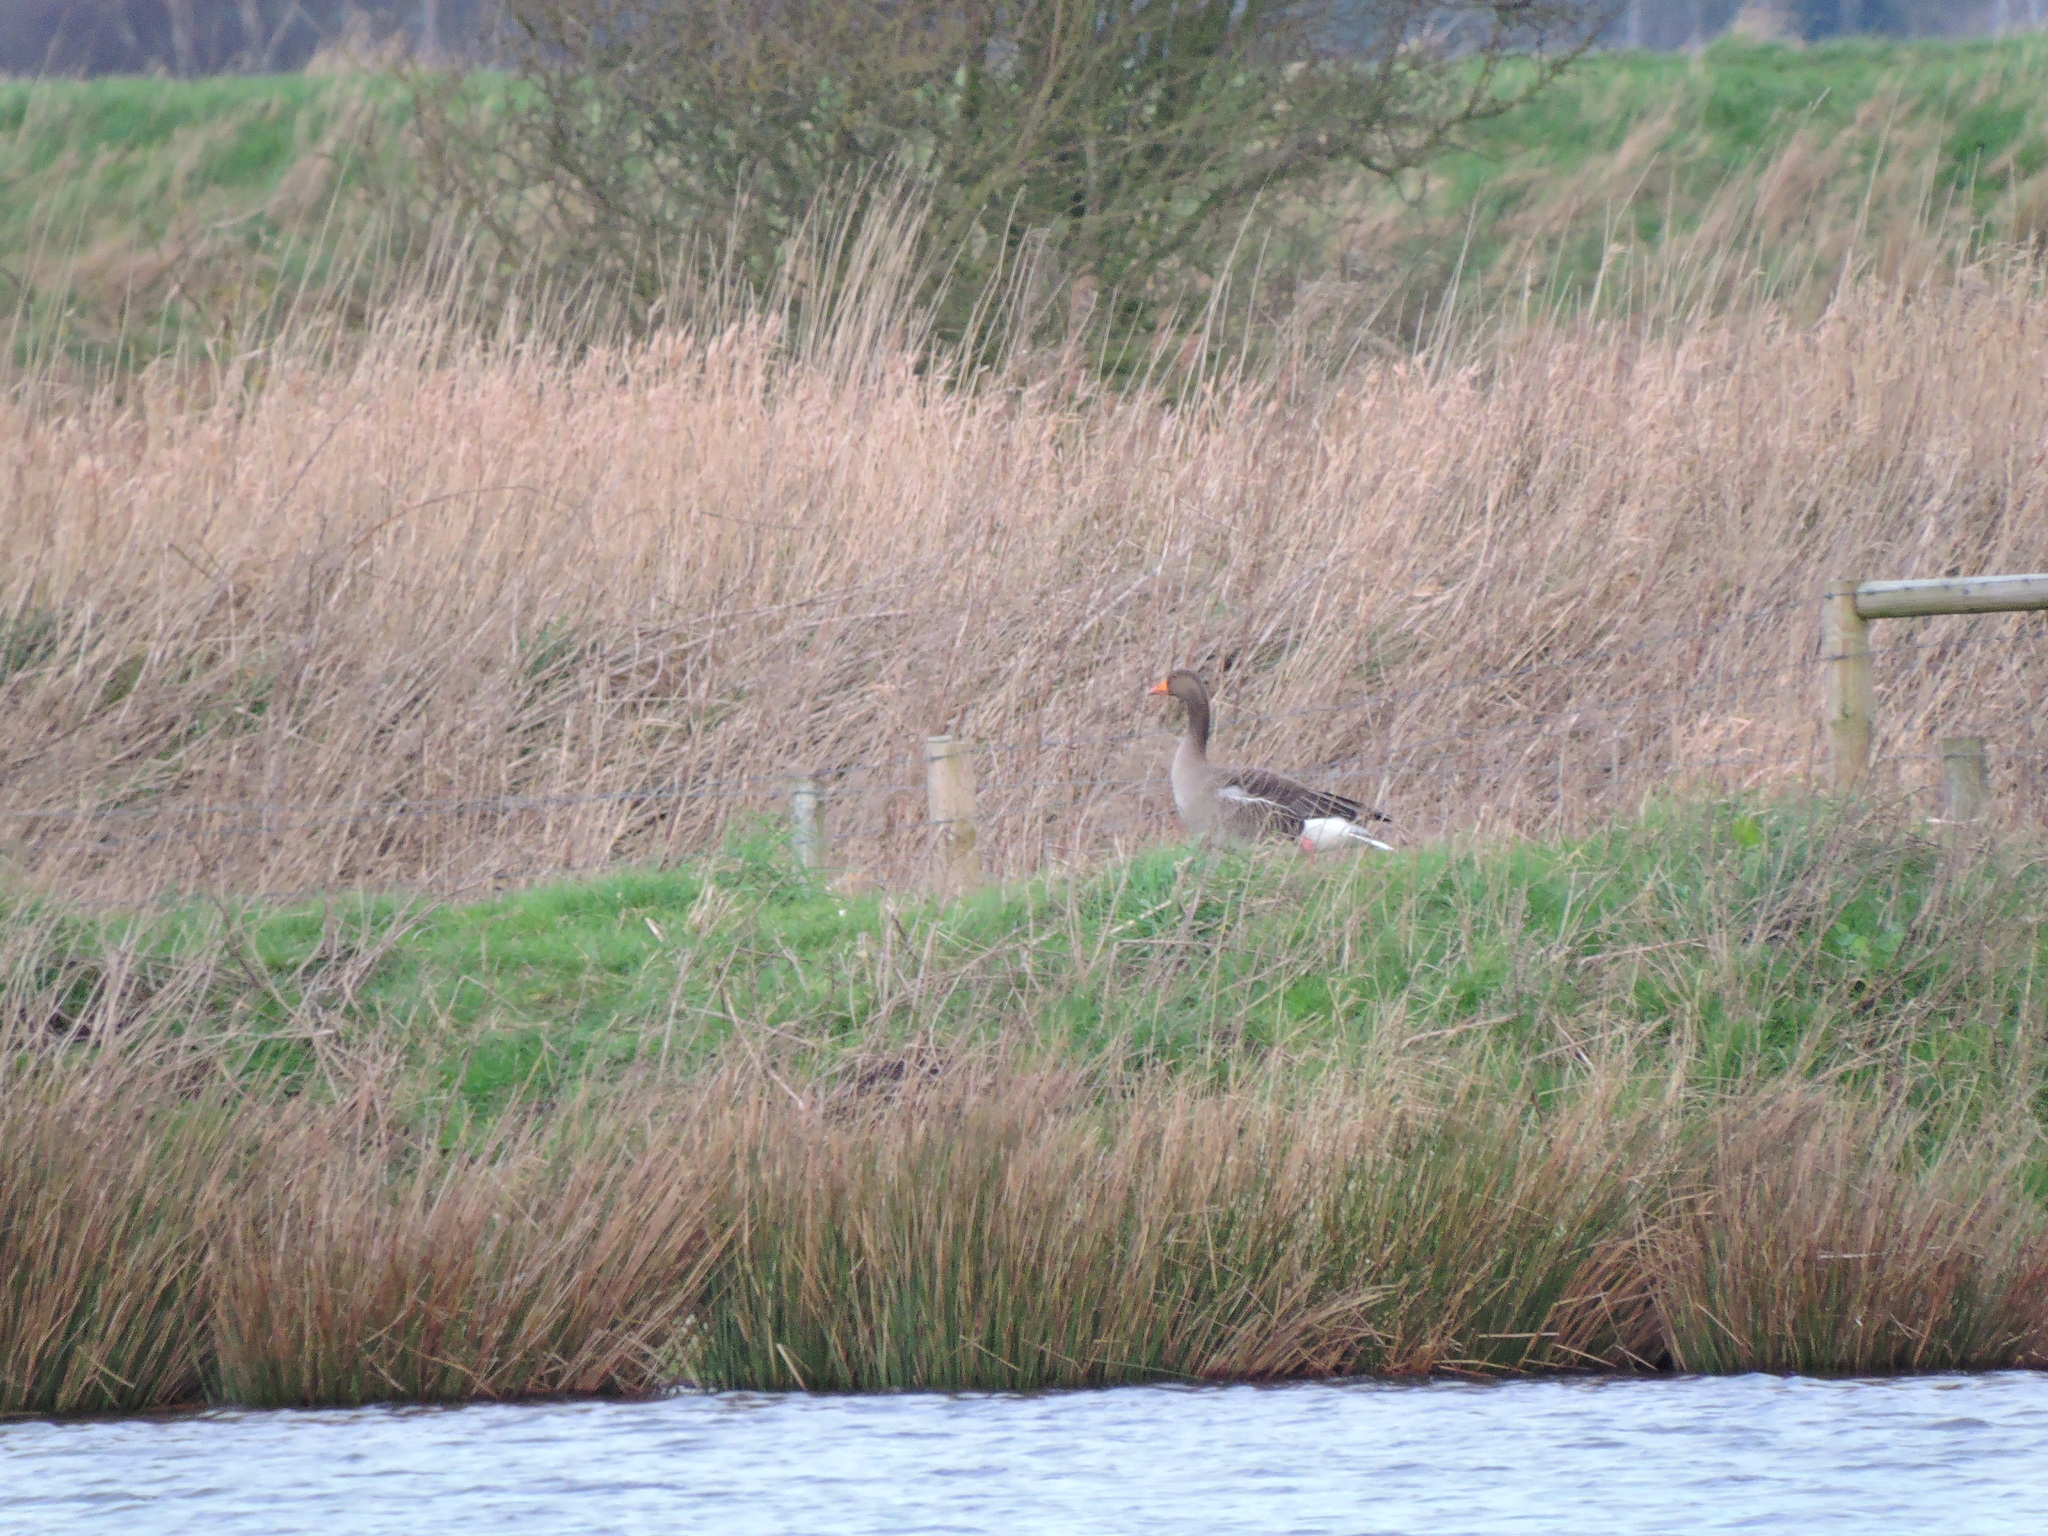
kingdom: Animalia
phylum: Chordata
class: Aves
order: Anseriformes
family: Anatidae
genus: Anser
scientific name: Anser anser
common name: Greylag goose
